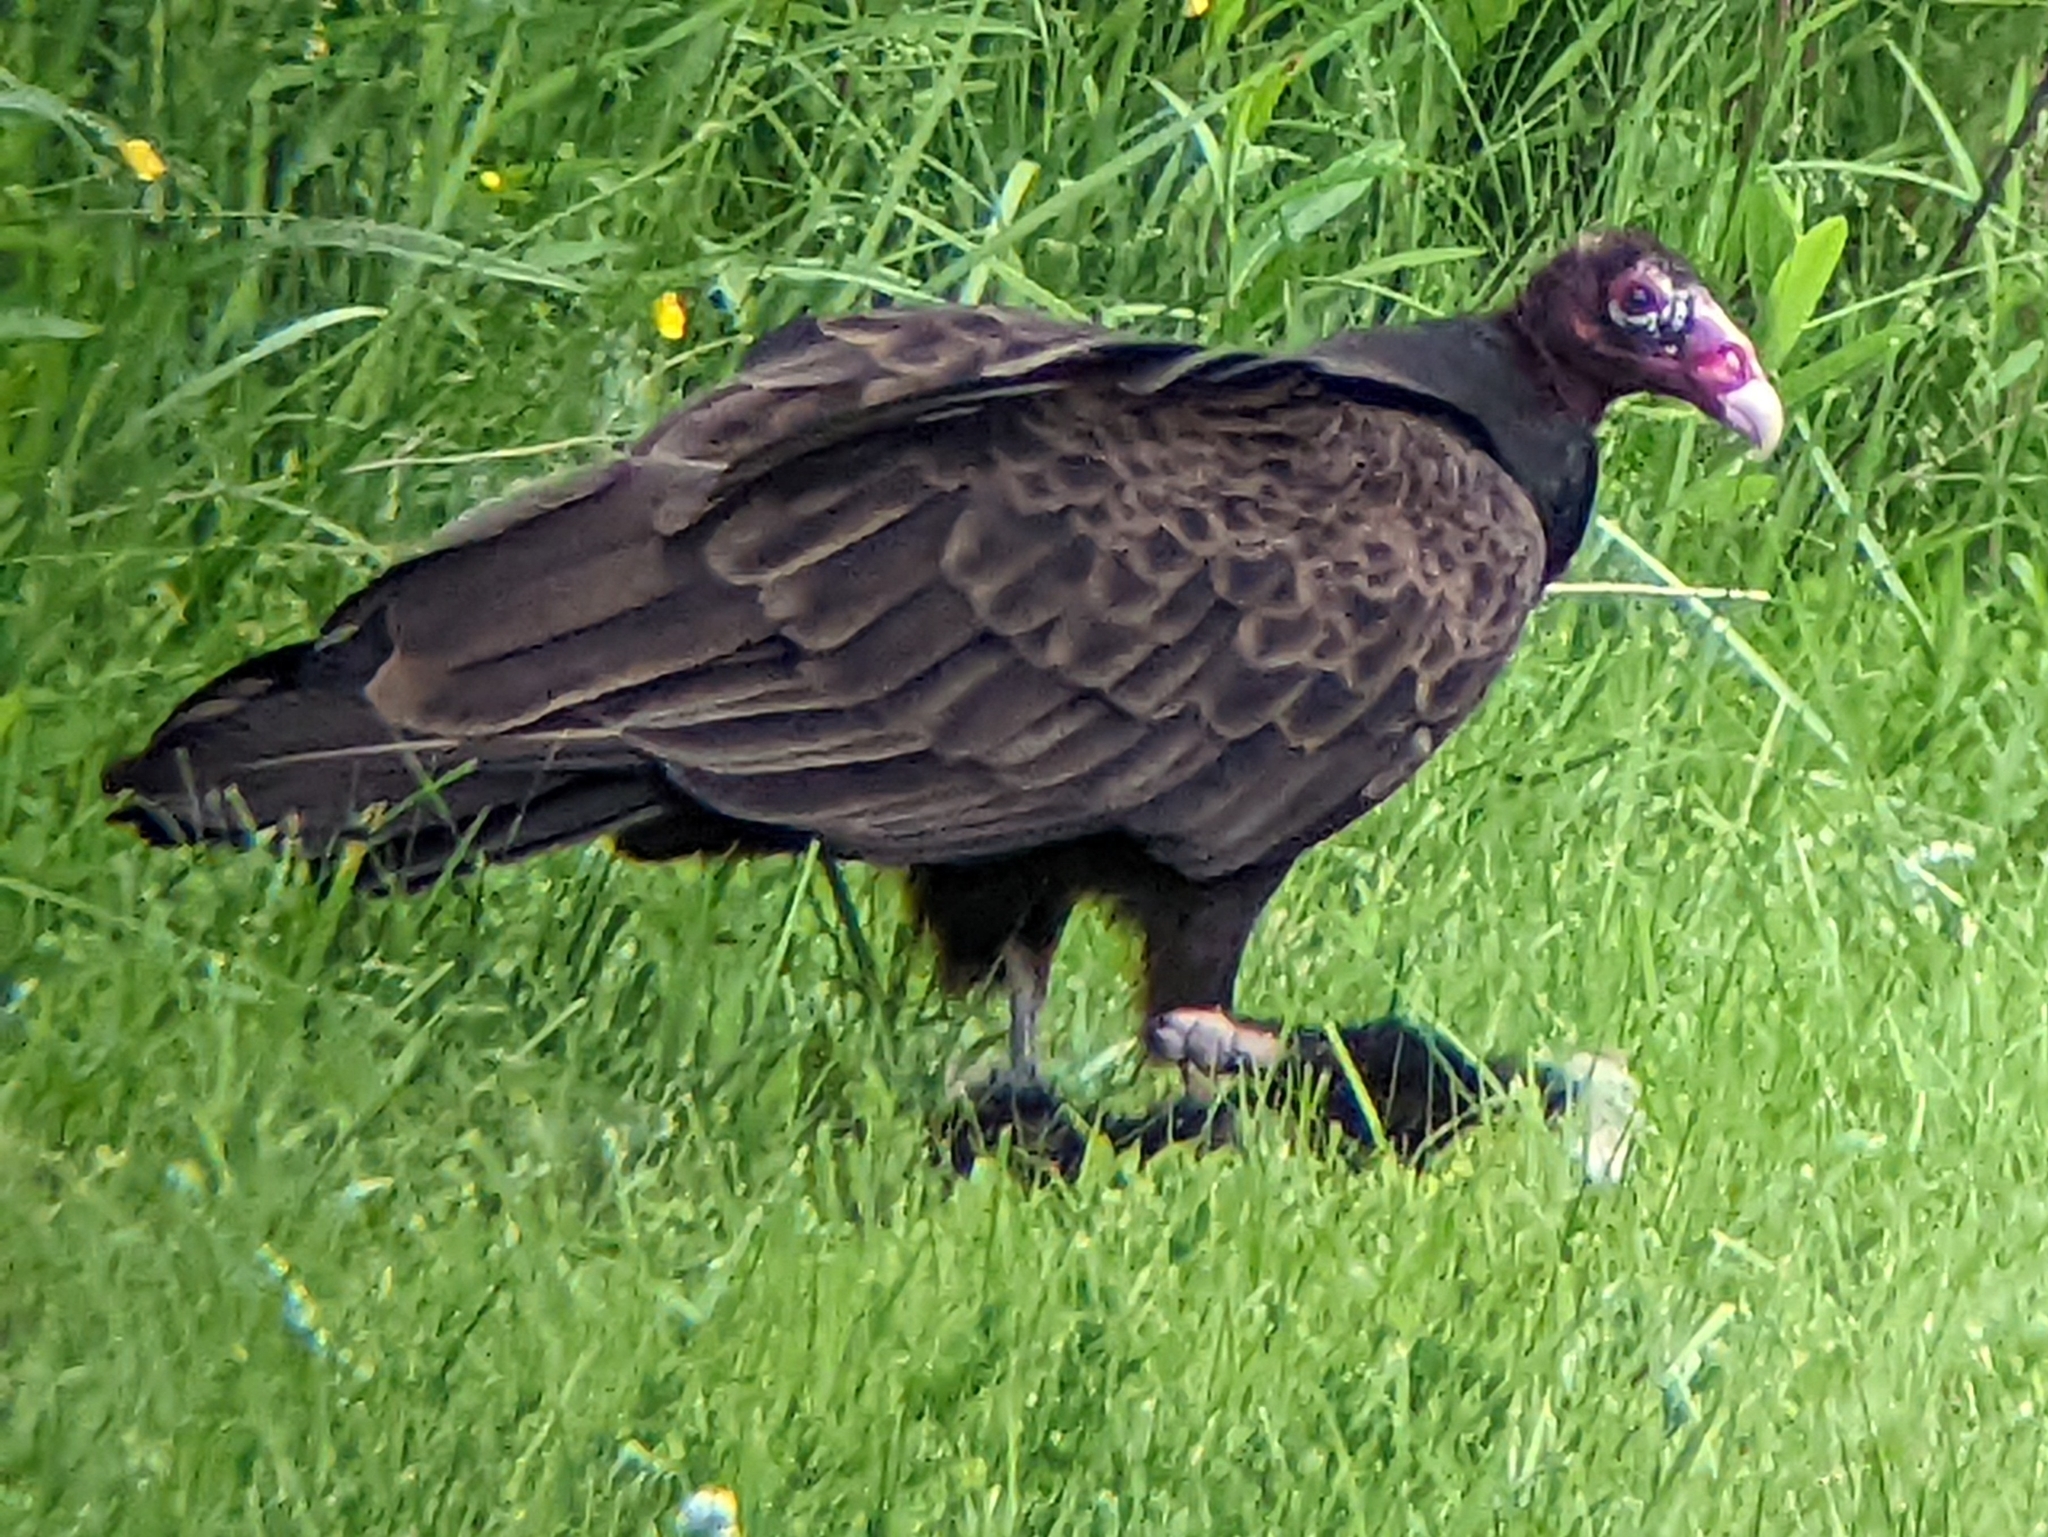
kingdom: Animalia
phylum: Chordata
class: Aves
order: Accipitriformes
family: Cathartidae
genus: Cathartes
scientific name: Cathartes aura
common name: Turkey vulture
